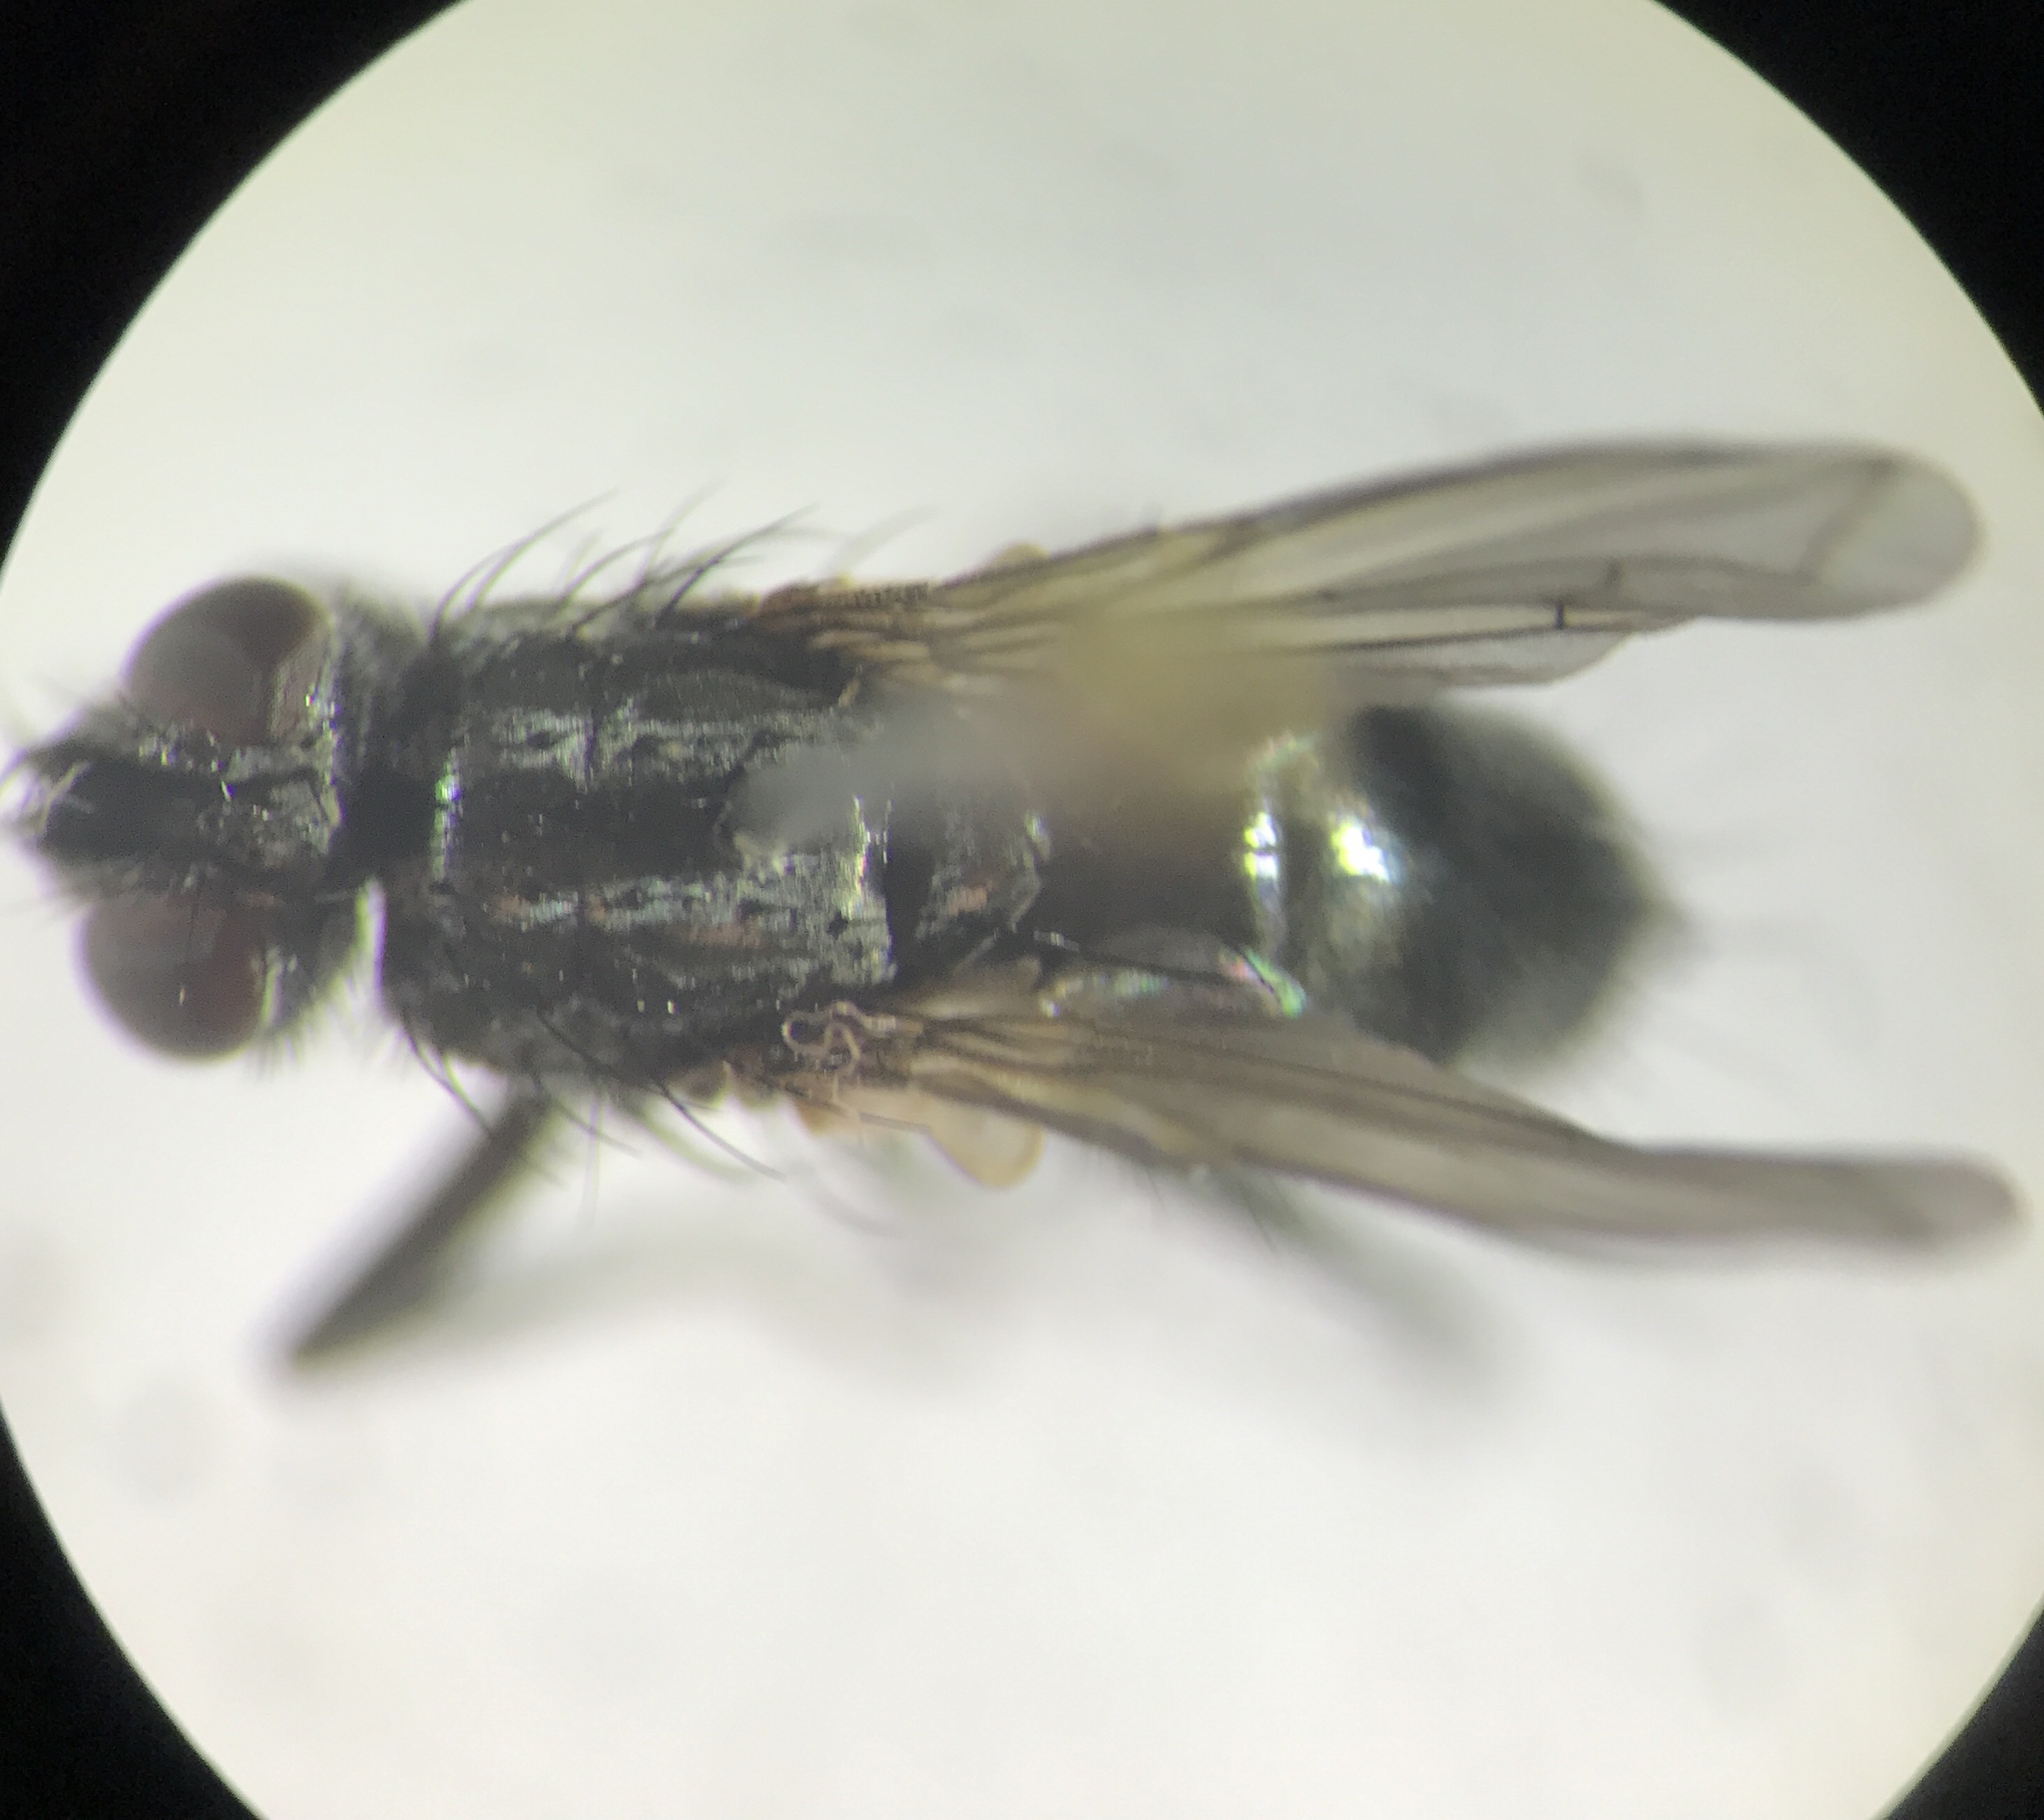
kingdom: Animalia
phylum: Arthropoda
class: Insecta
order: Diptera
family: Calliphoridae
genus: Phyto
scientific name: Phyto melanocephala
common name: Three-striped woodlouse-fly
